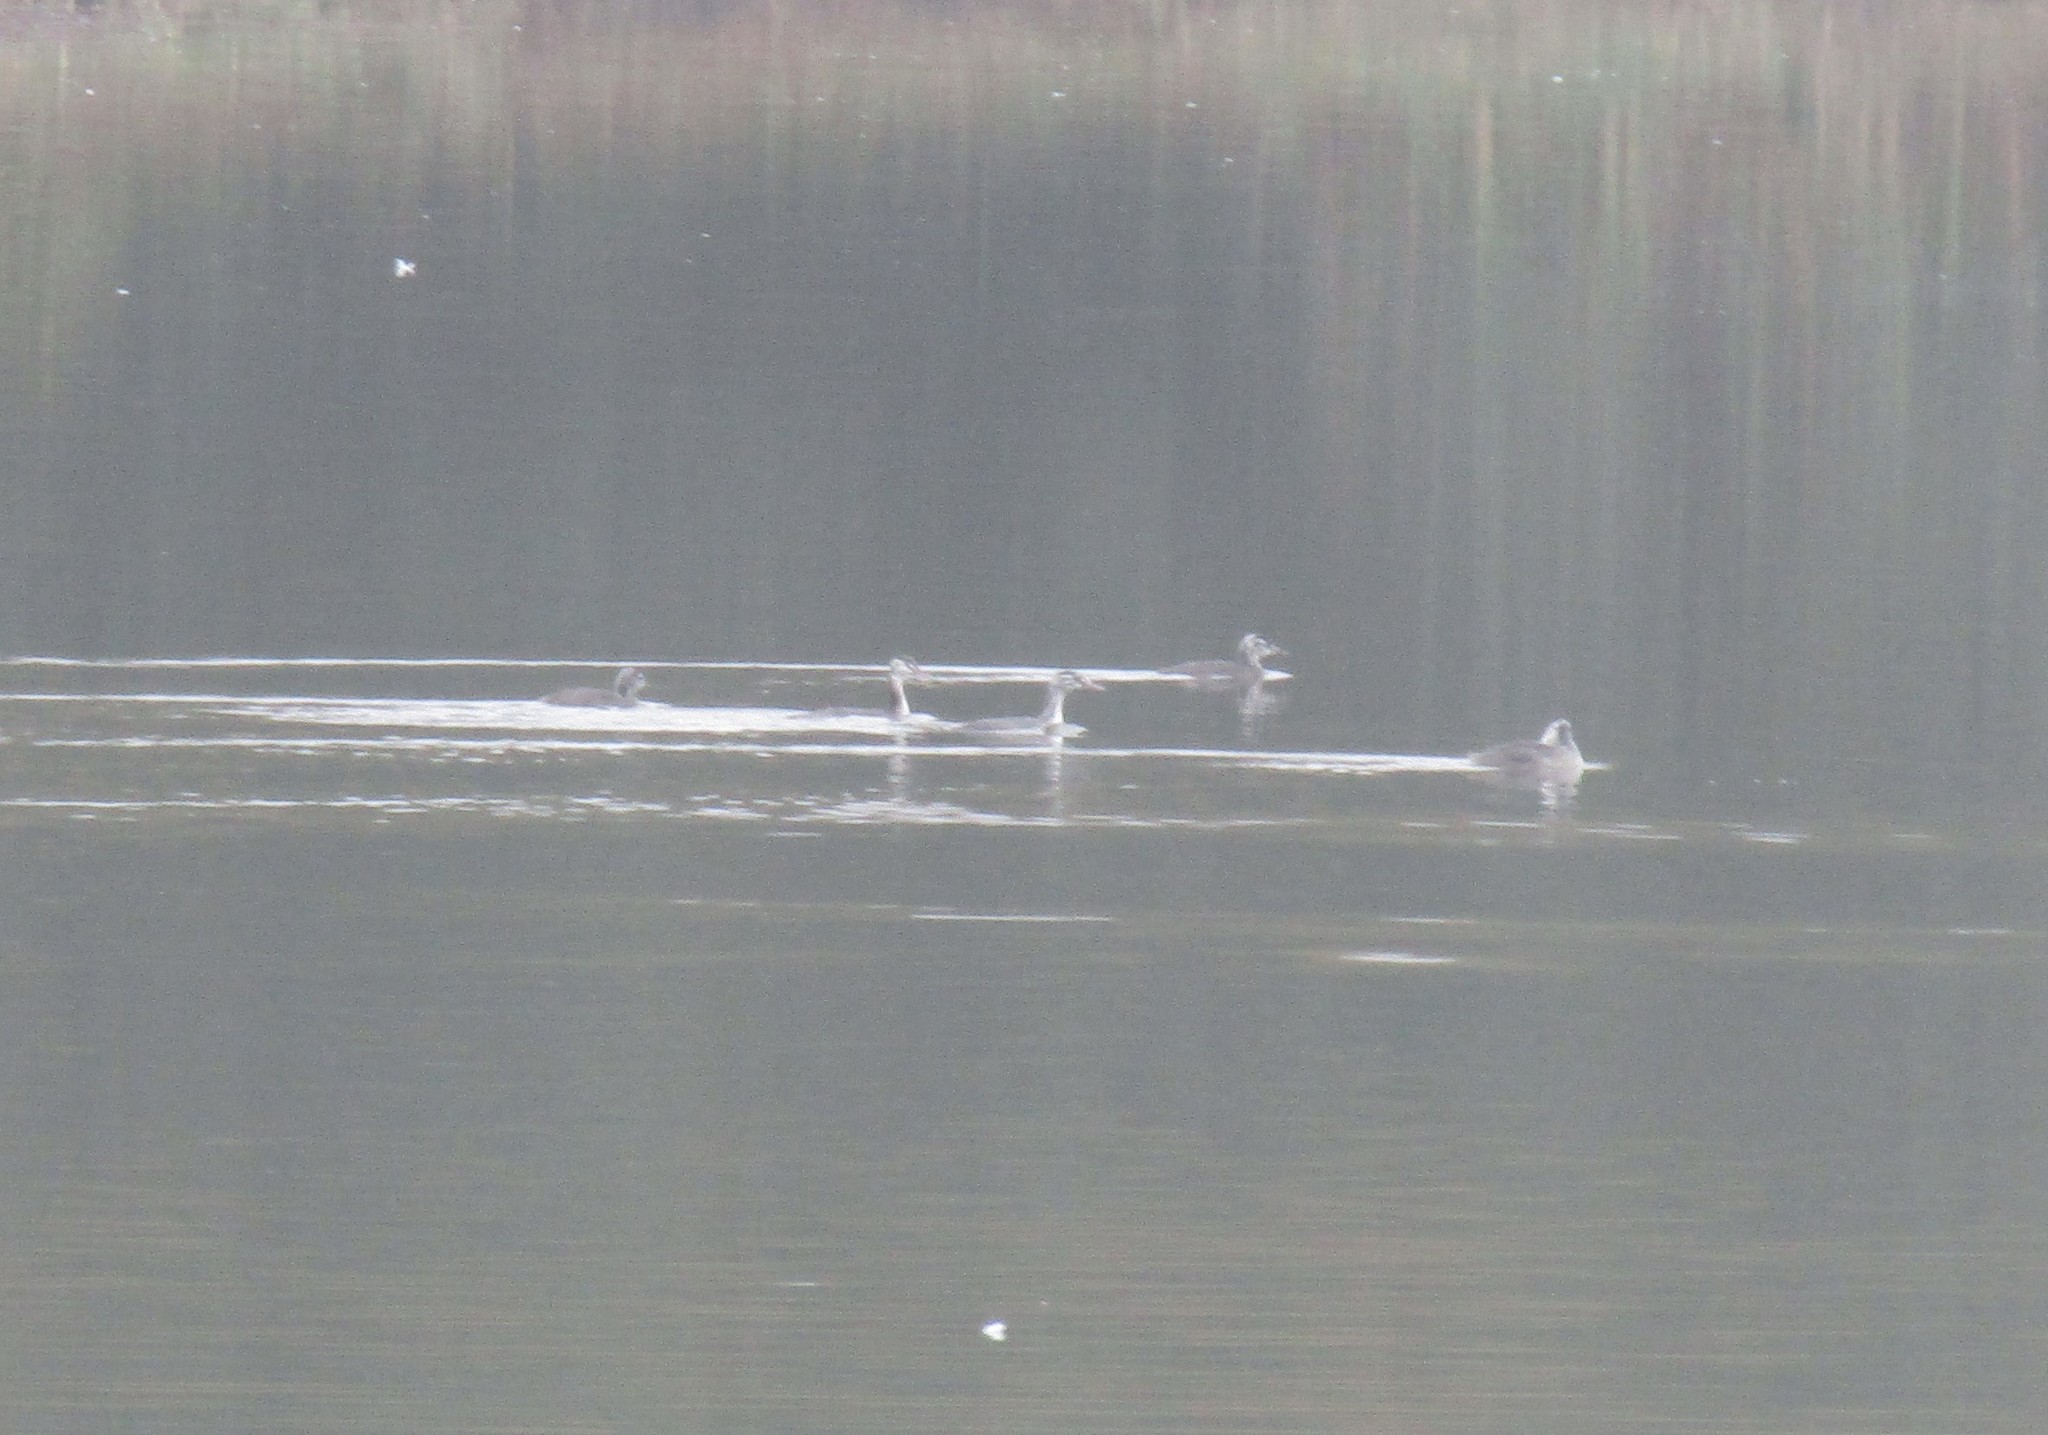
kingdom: Animalia
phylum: Chordata
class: Aves
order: Podicipediformes
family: Podicipedidae
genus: Podiceps
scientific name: Podiceps cristatus
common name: Great crested grebe
